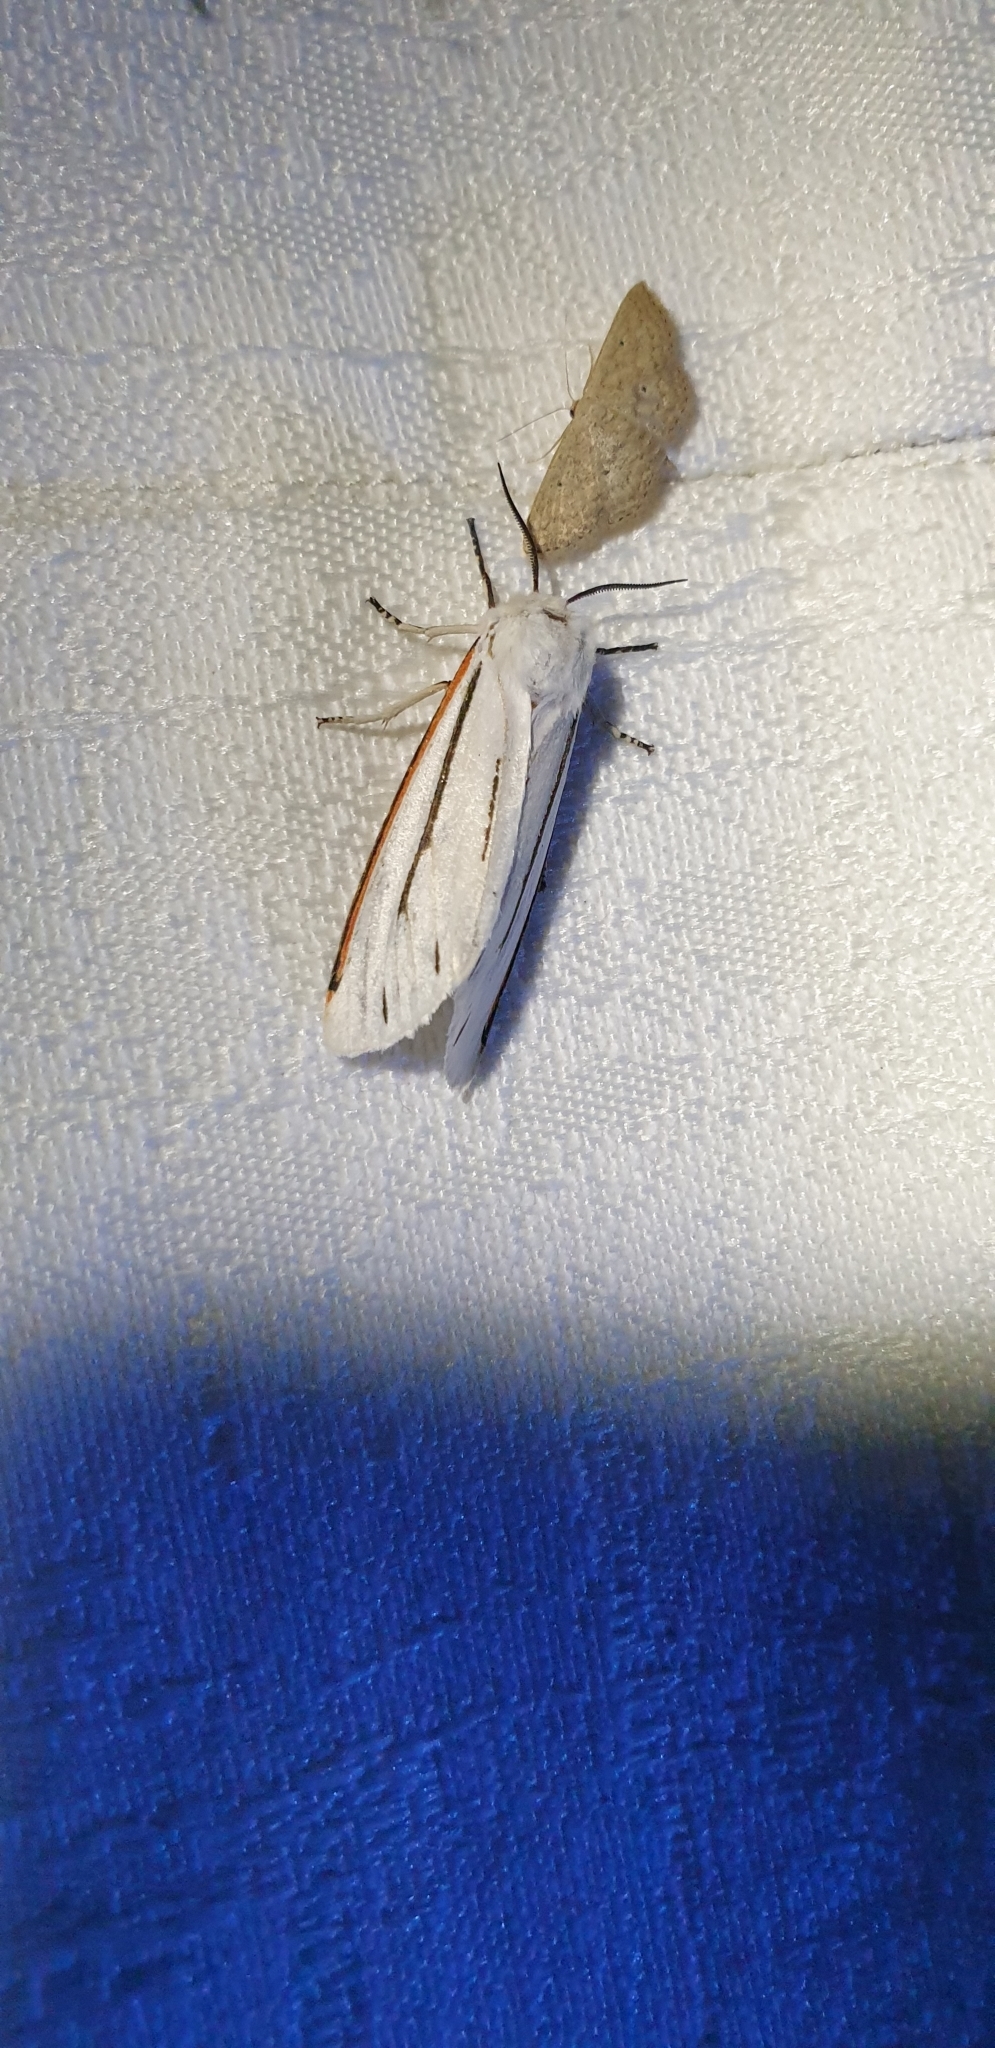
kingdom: Animalia
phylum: Arthropoda
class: Insecta
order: Lepidoptera
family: Erebidae
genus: Aloa
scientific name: Aloa marginata
